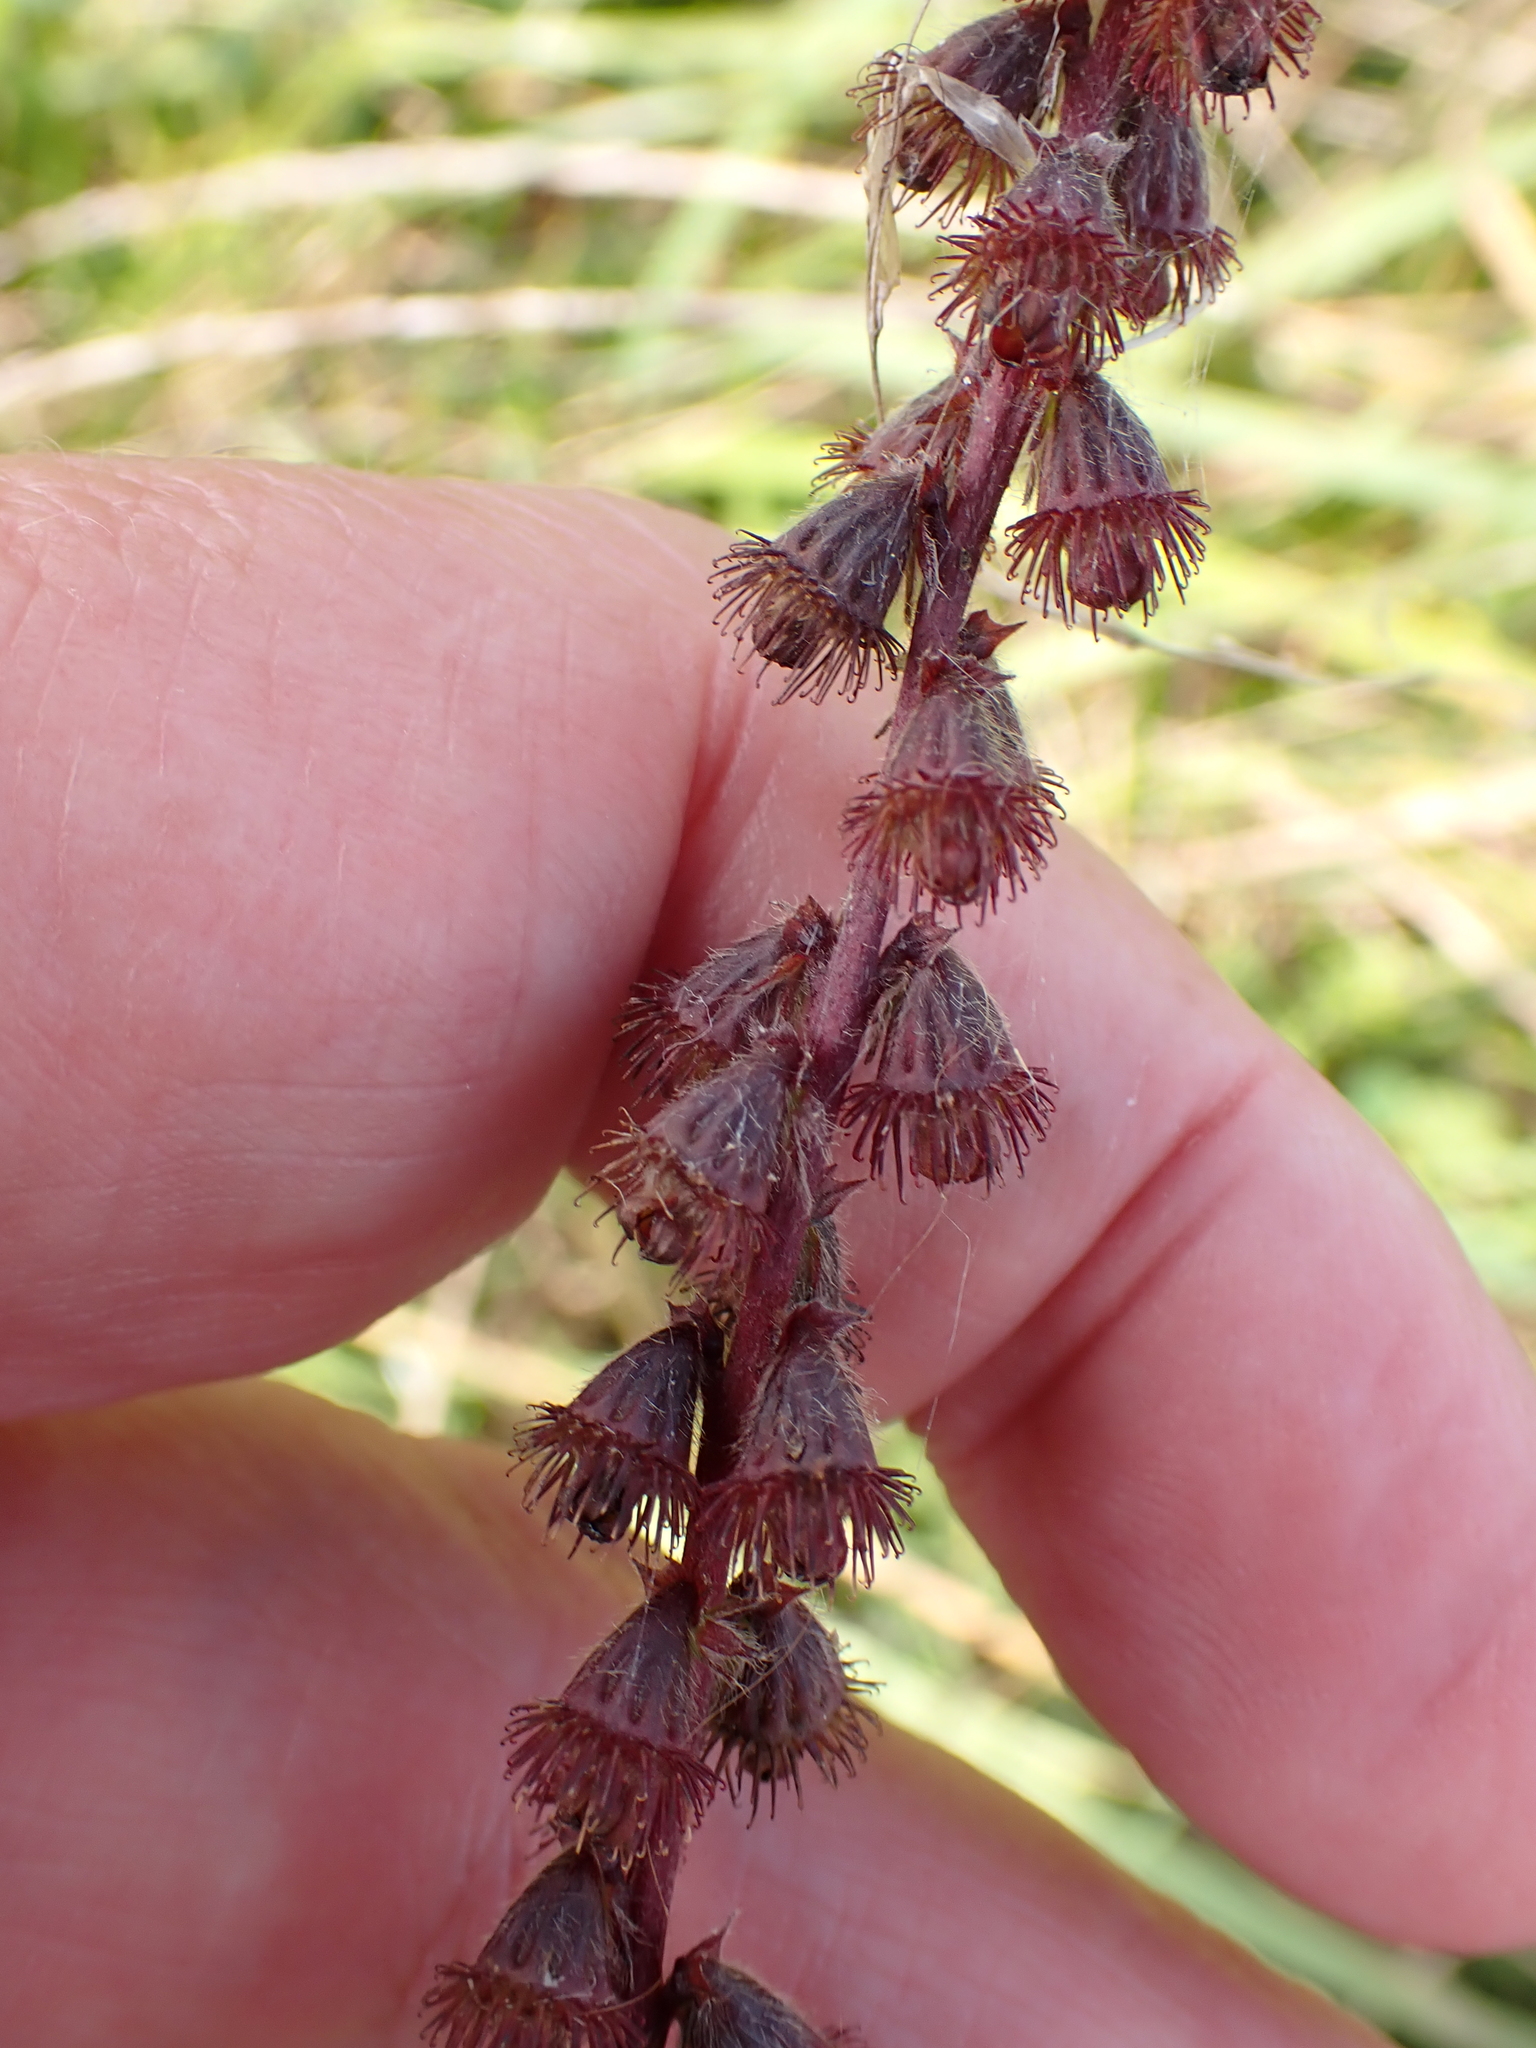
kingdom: Plantae
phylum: Tracheophyta
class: Magnoliopsida
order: Rosales
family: Rosaceae
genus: Agrimonia
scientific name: Agrimonia eupatoria
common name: Agrimony
